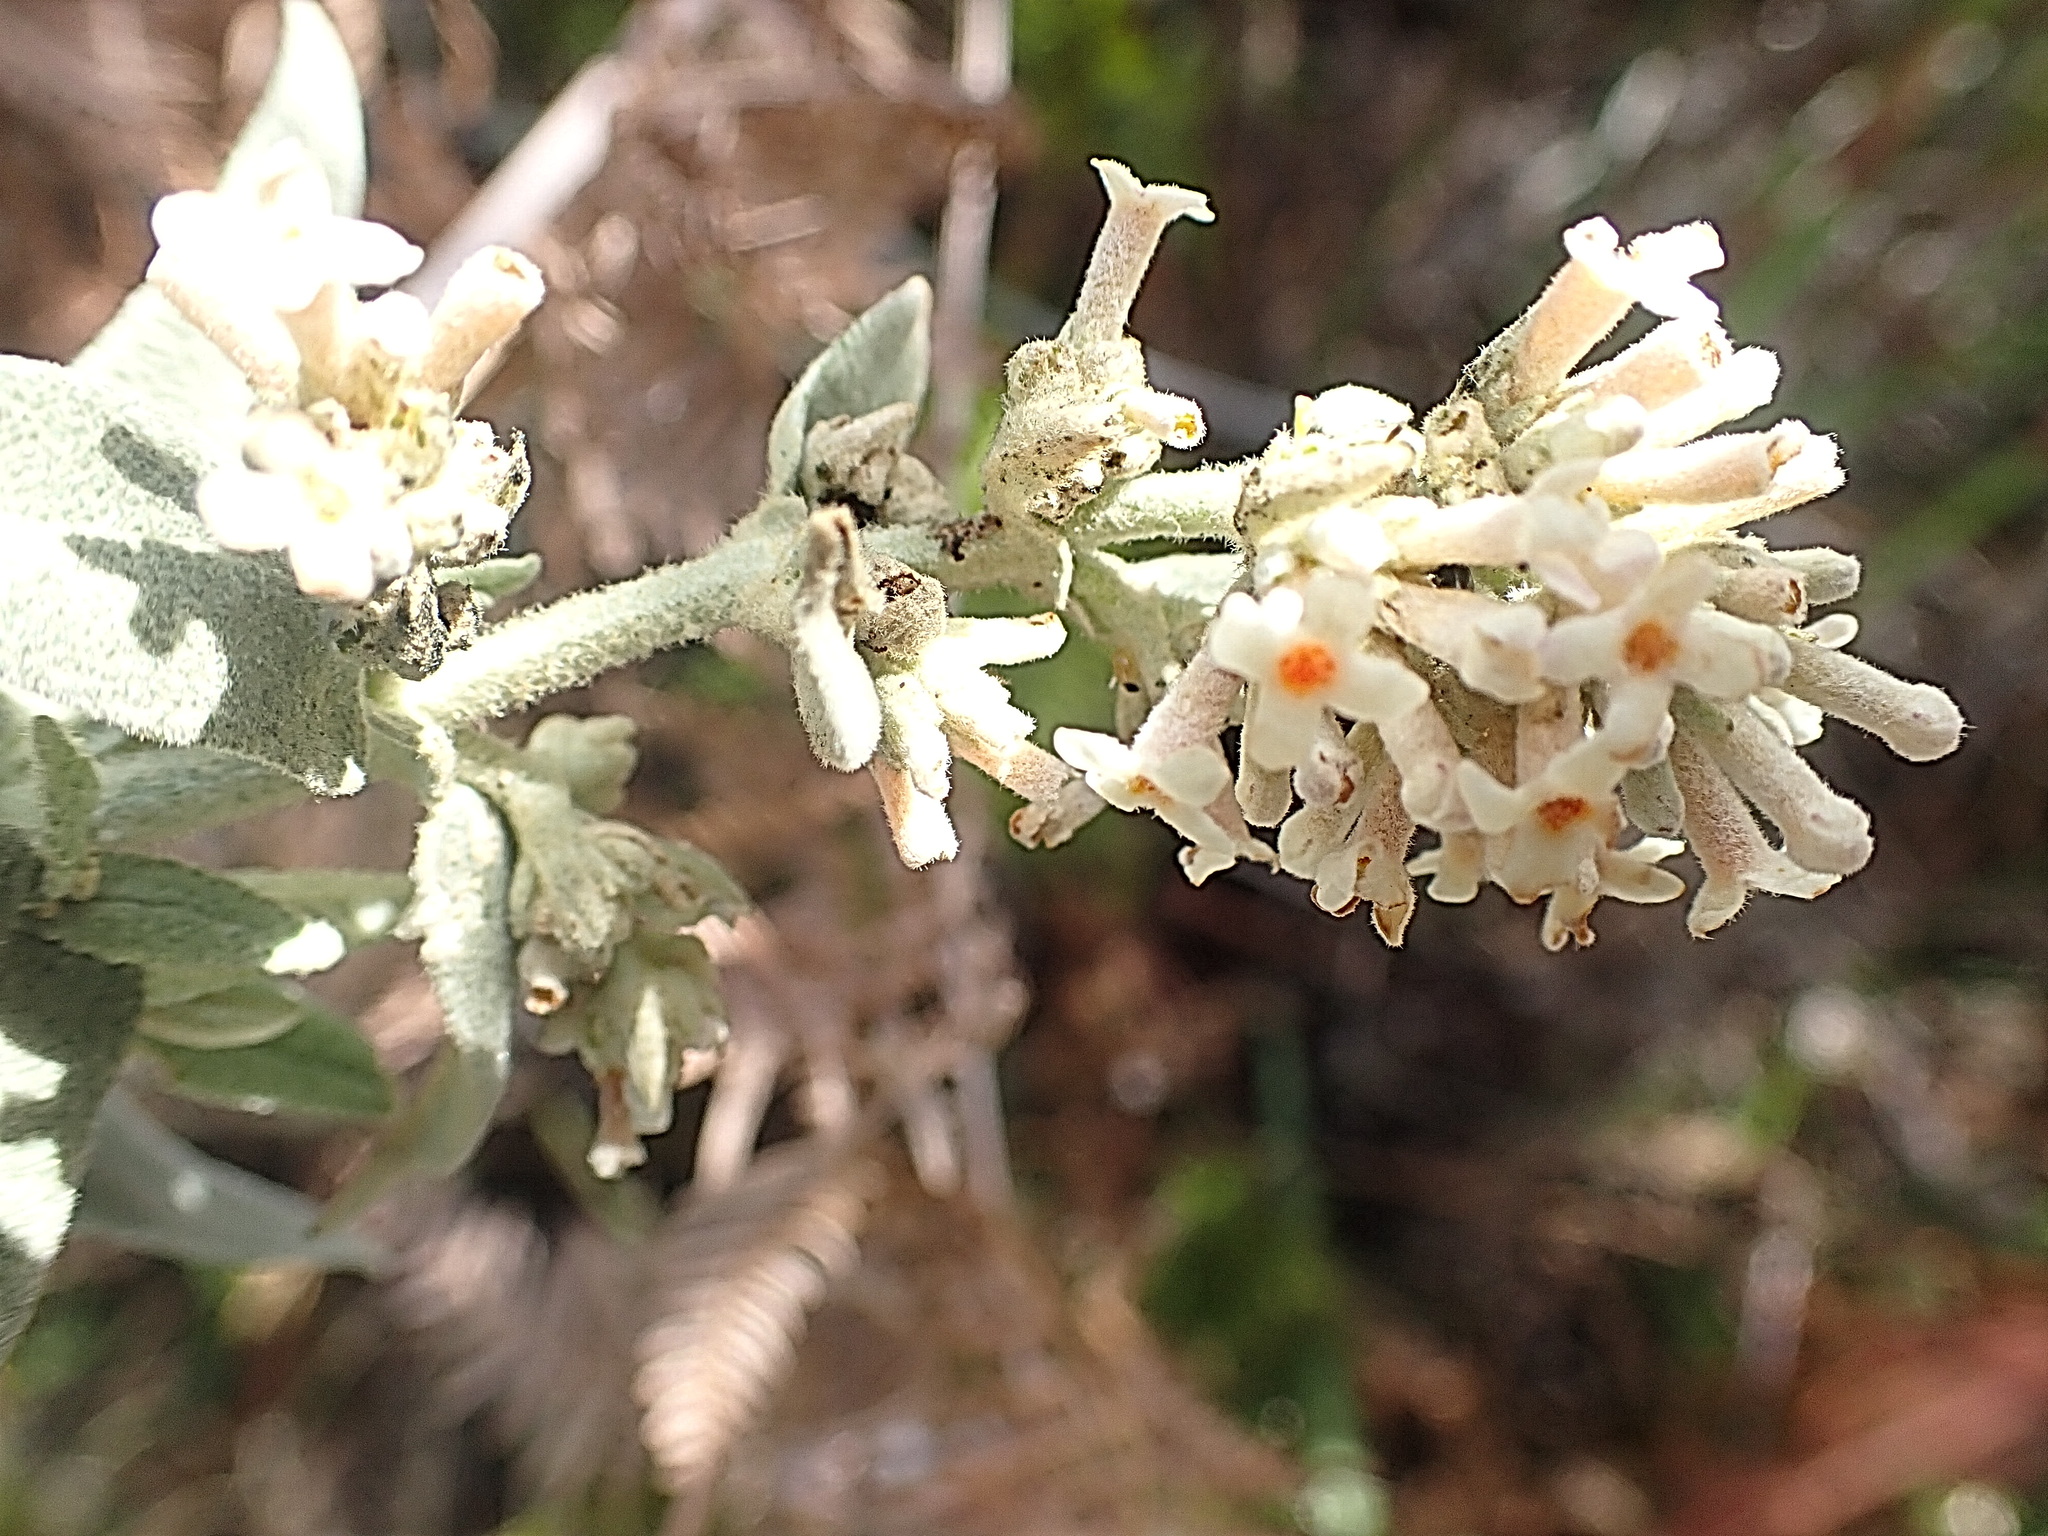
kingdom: Plantae
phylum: Tracheophyta
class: Magnoliopsida
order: Lamiales
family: Scrophulariaceae
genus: Buddleja
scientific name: Buddleja salviifolia
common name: Sagewood
